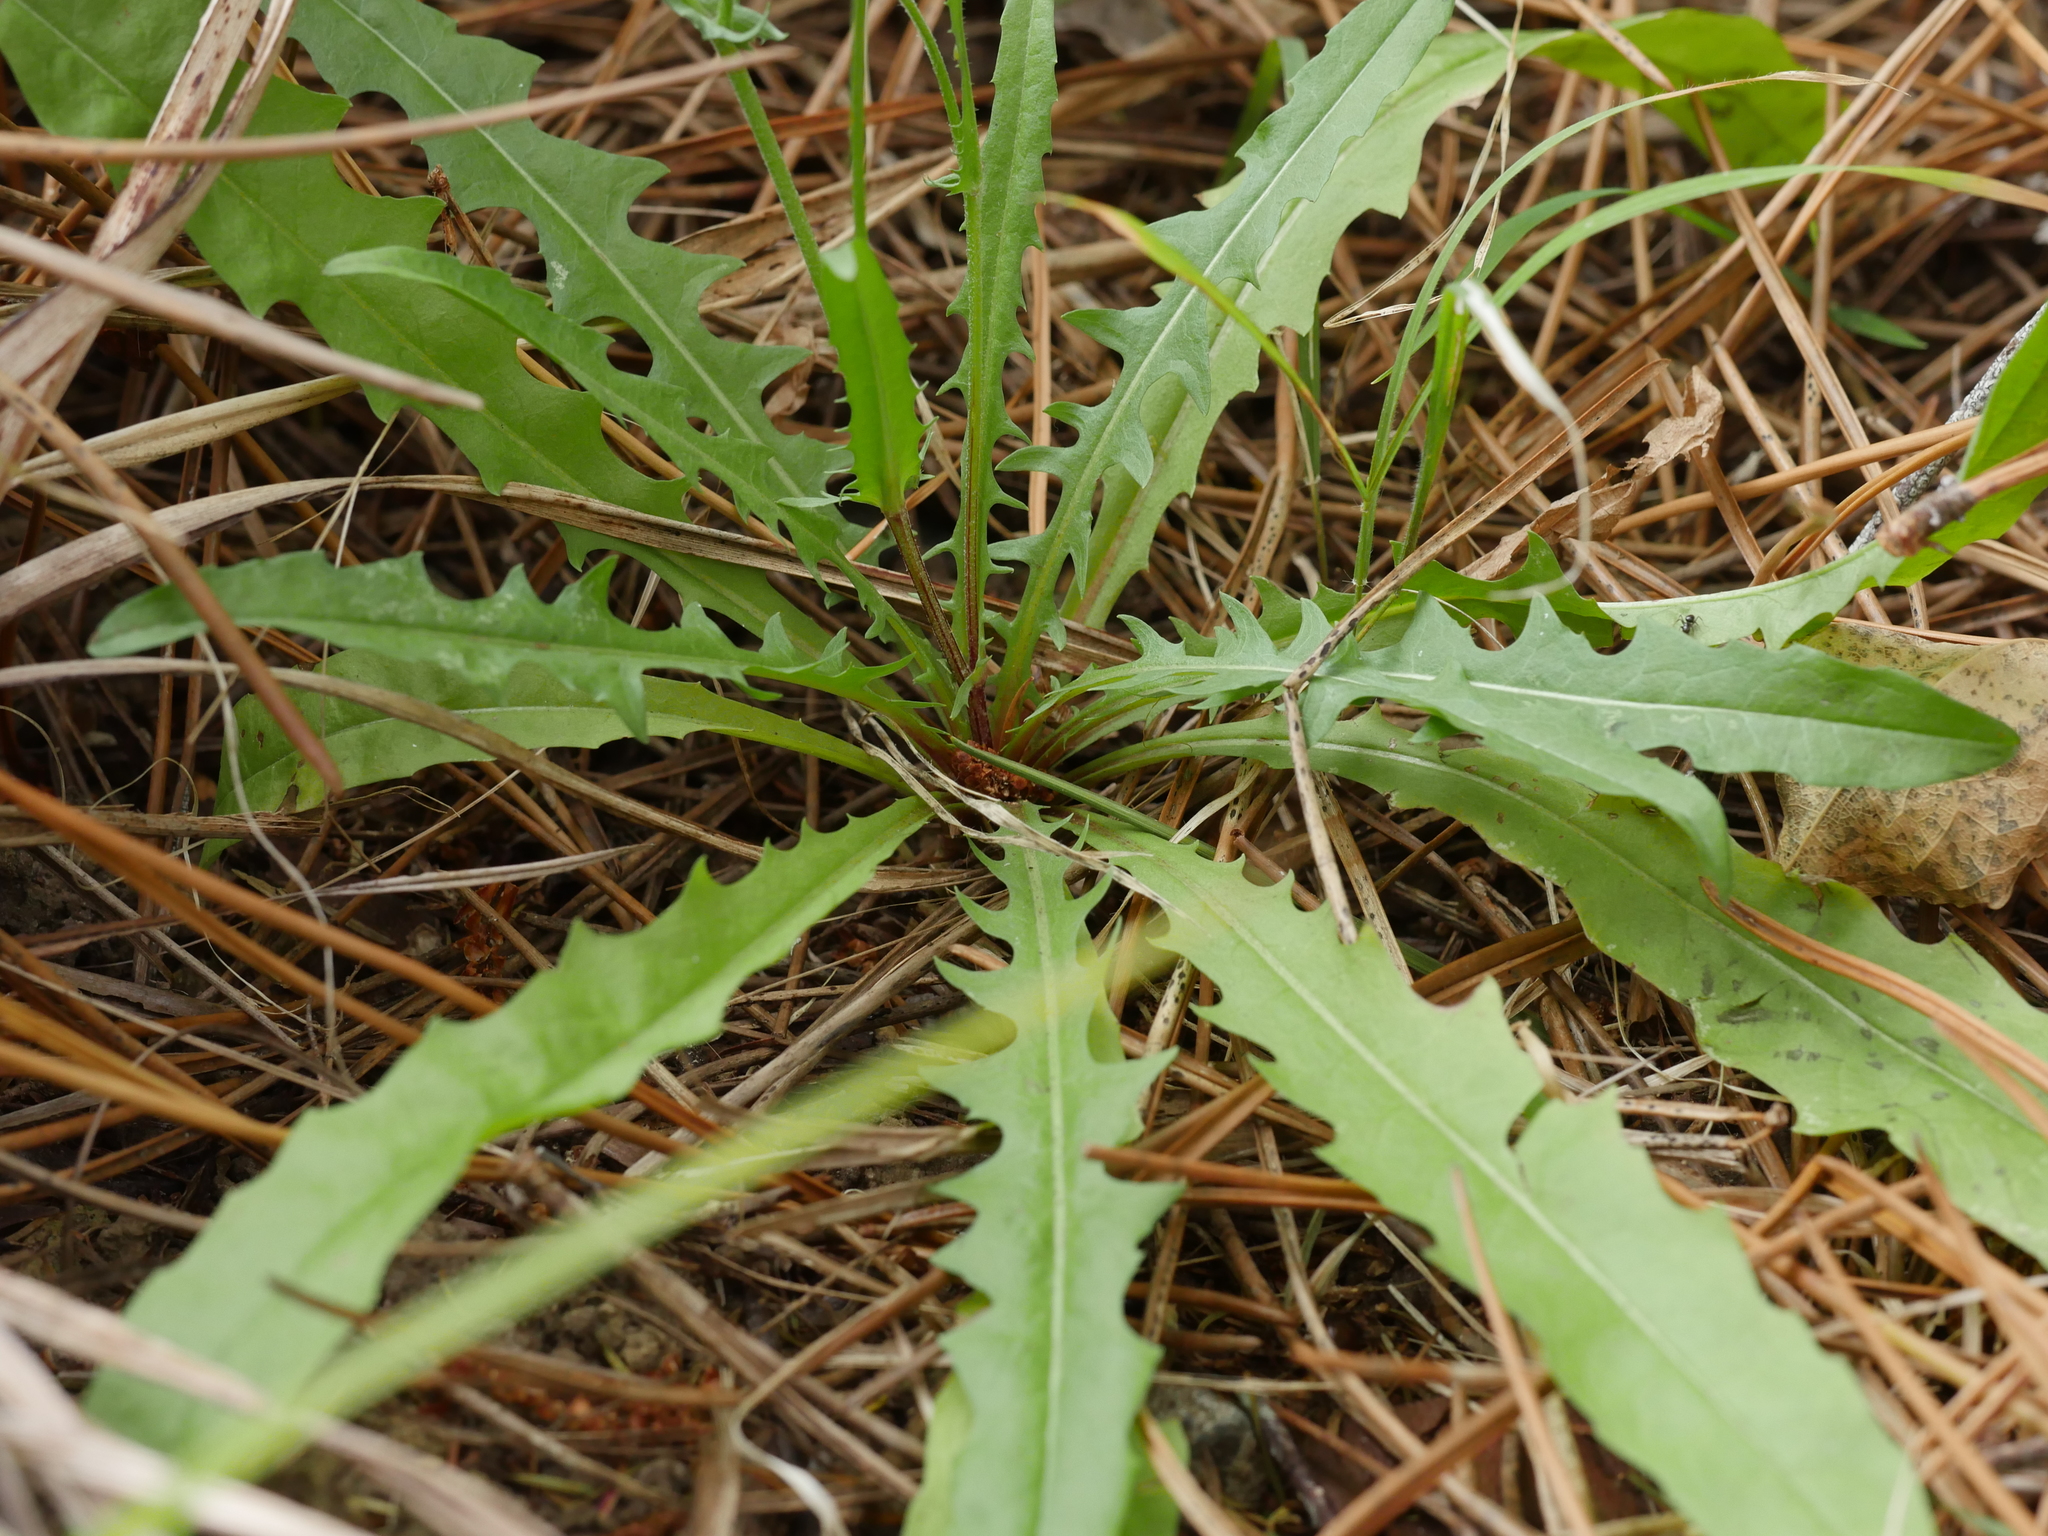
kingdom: Plantae
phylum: Tracheophyta
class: Magnoliopsida
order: Asterales
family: Asteraceae
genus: Crepis
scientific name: Crepis capillaris
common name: Smooth hawksbeard
